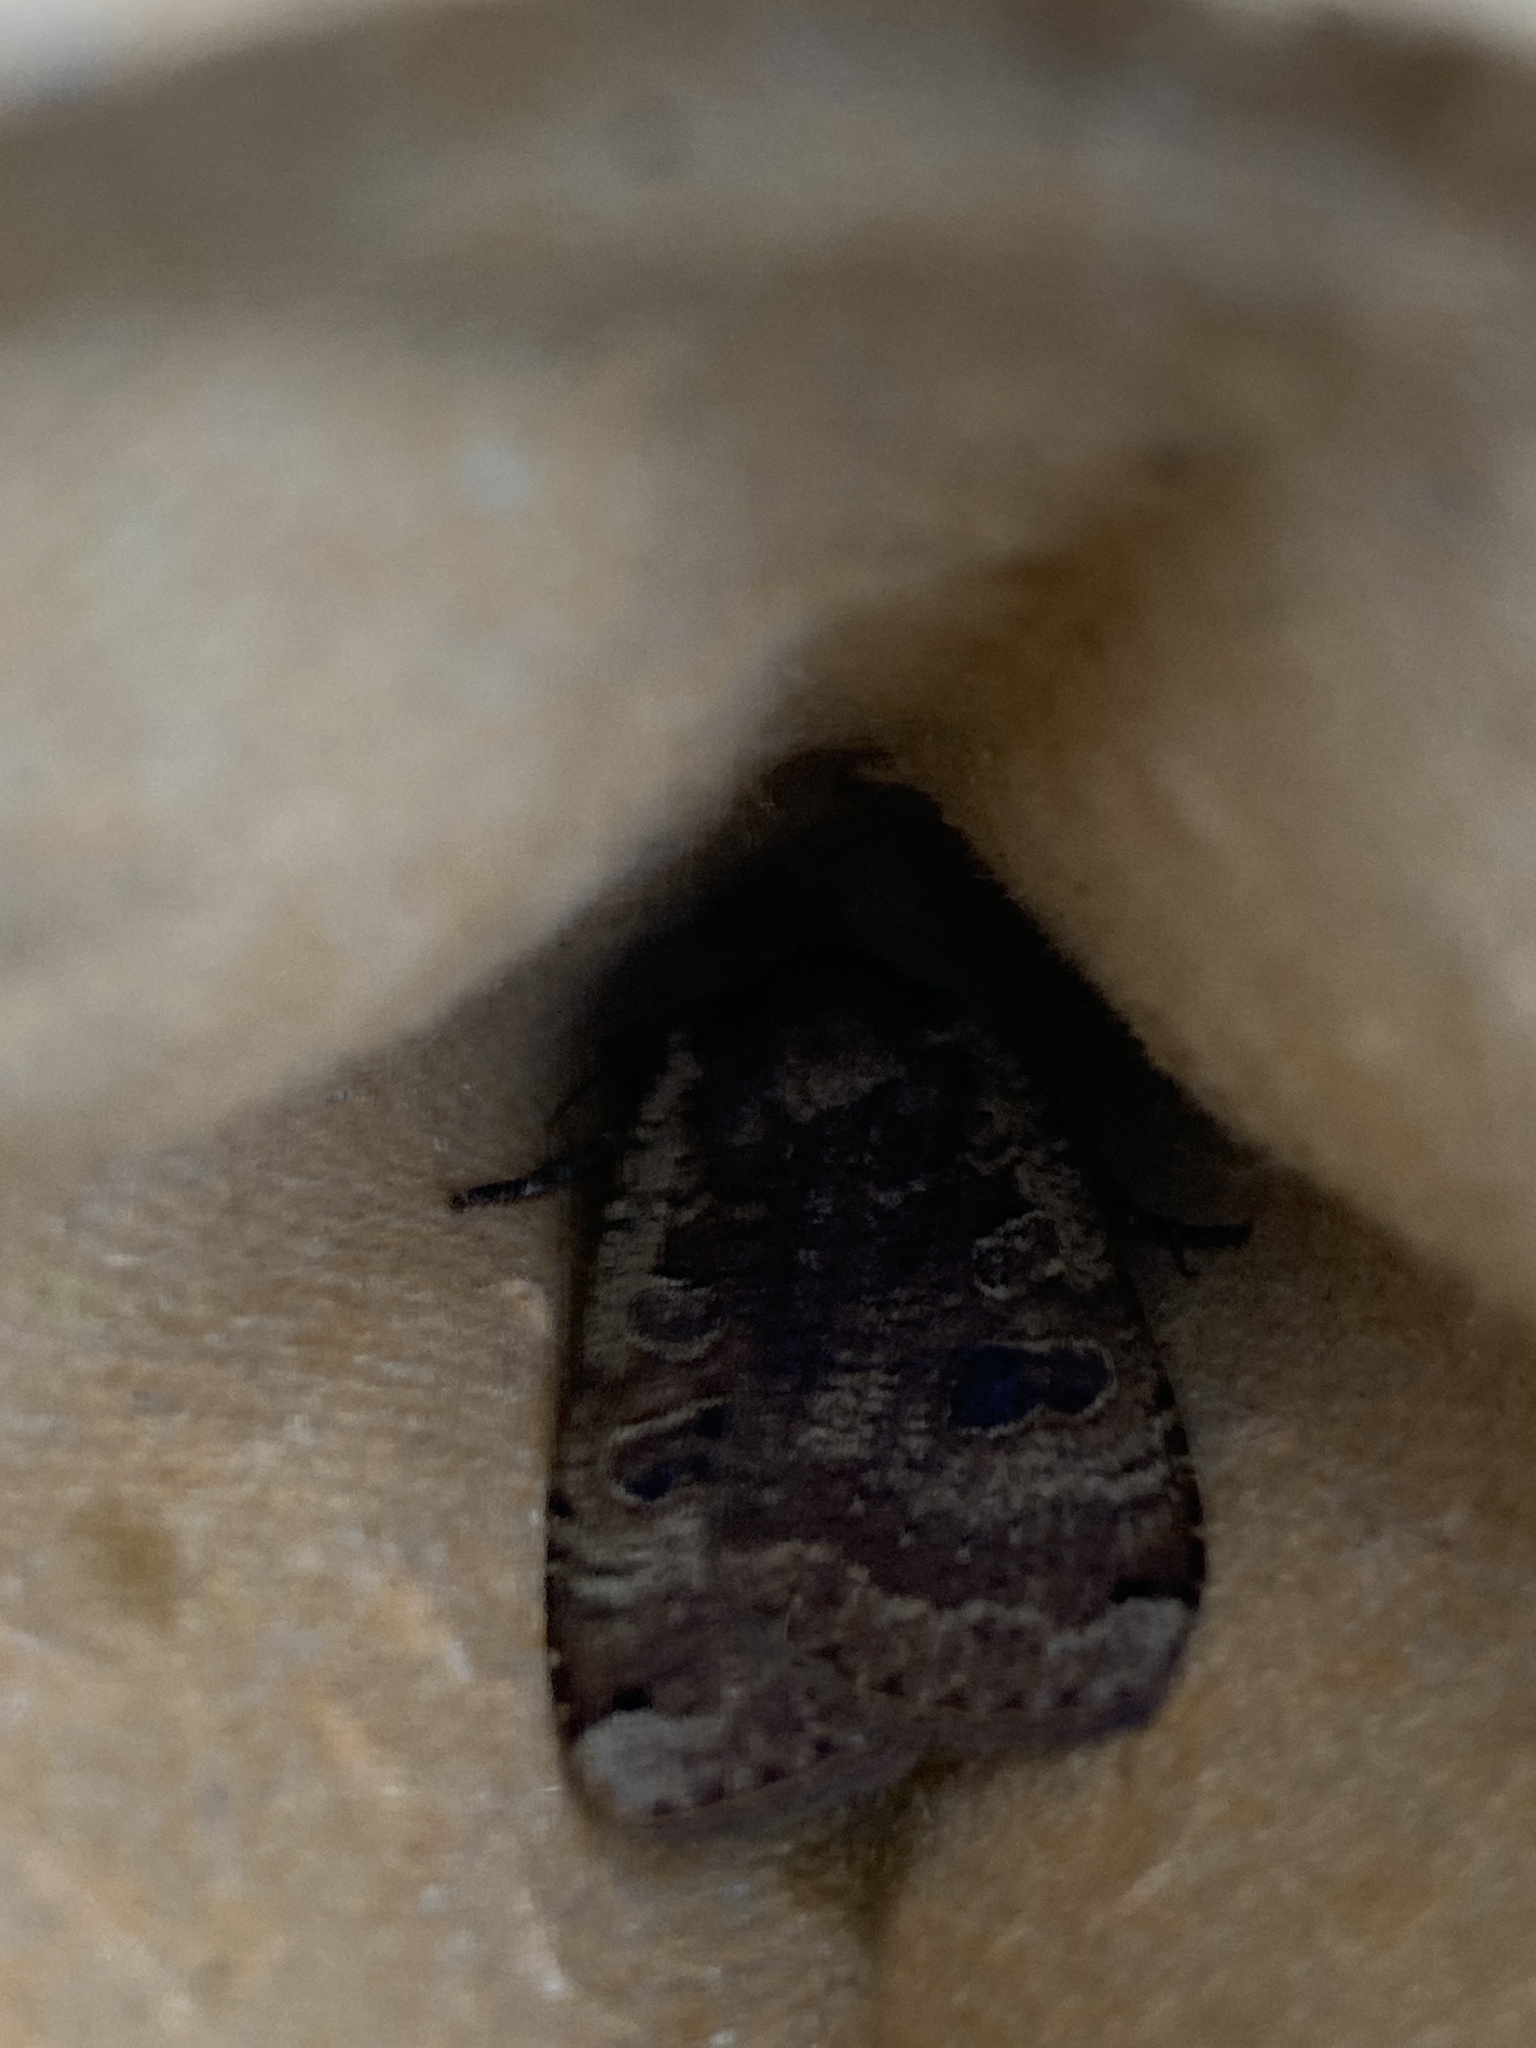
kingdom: Animalia
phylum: Arthropoda
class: Insecta
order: Lepidoptera
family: Noctuidae
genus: Noctua
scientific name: Noctua pronuba
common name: Large yellow underwing
